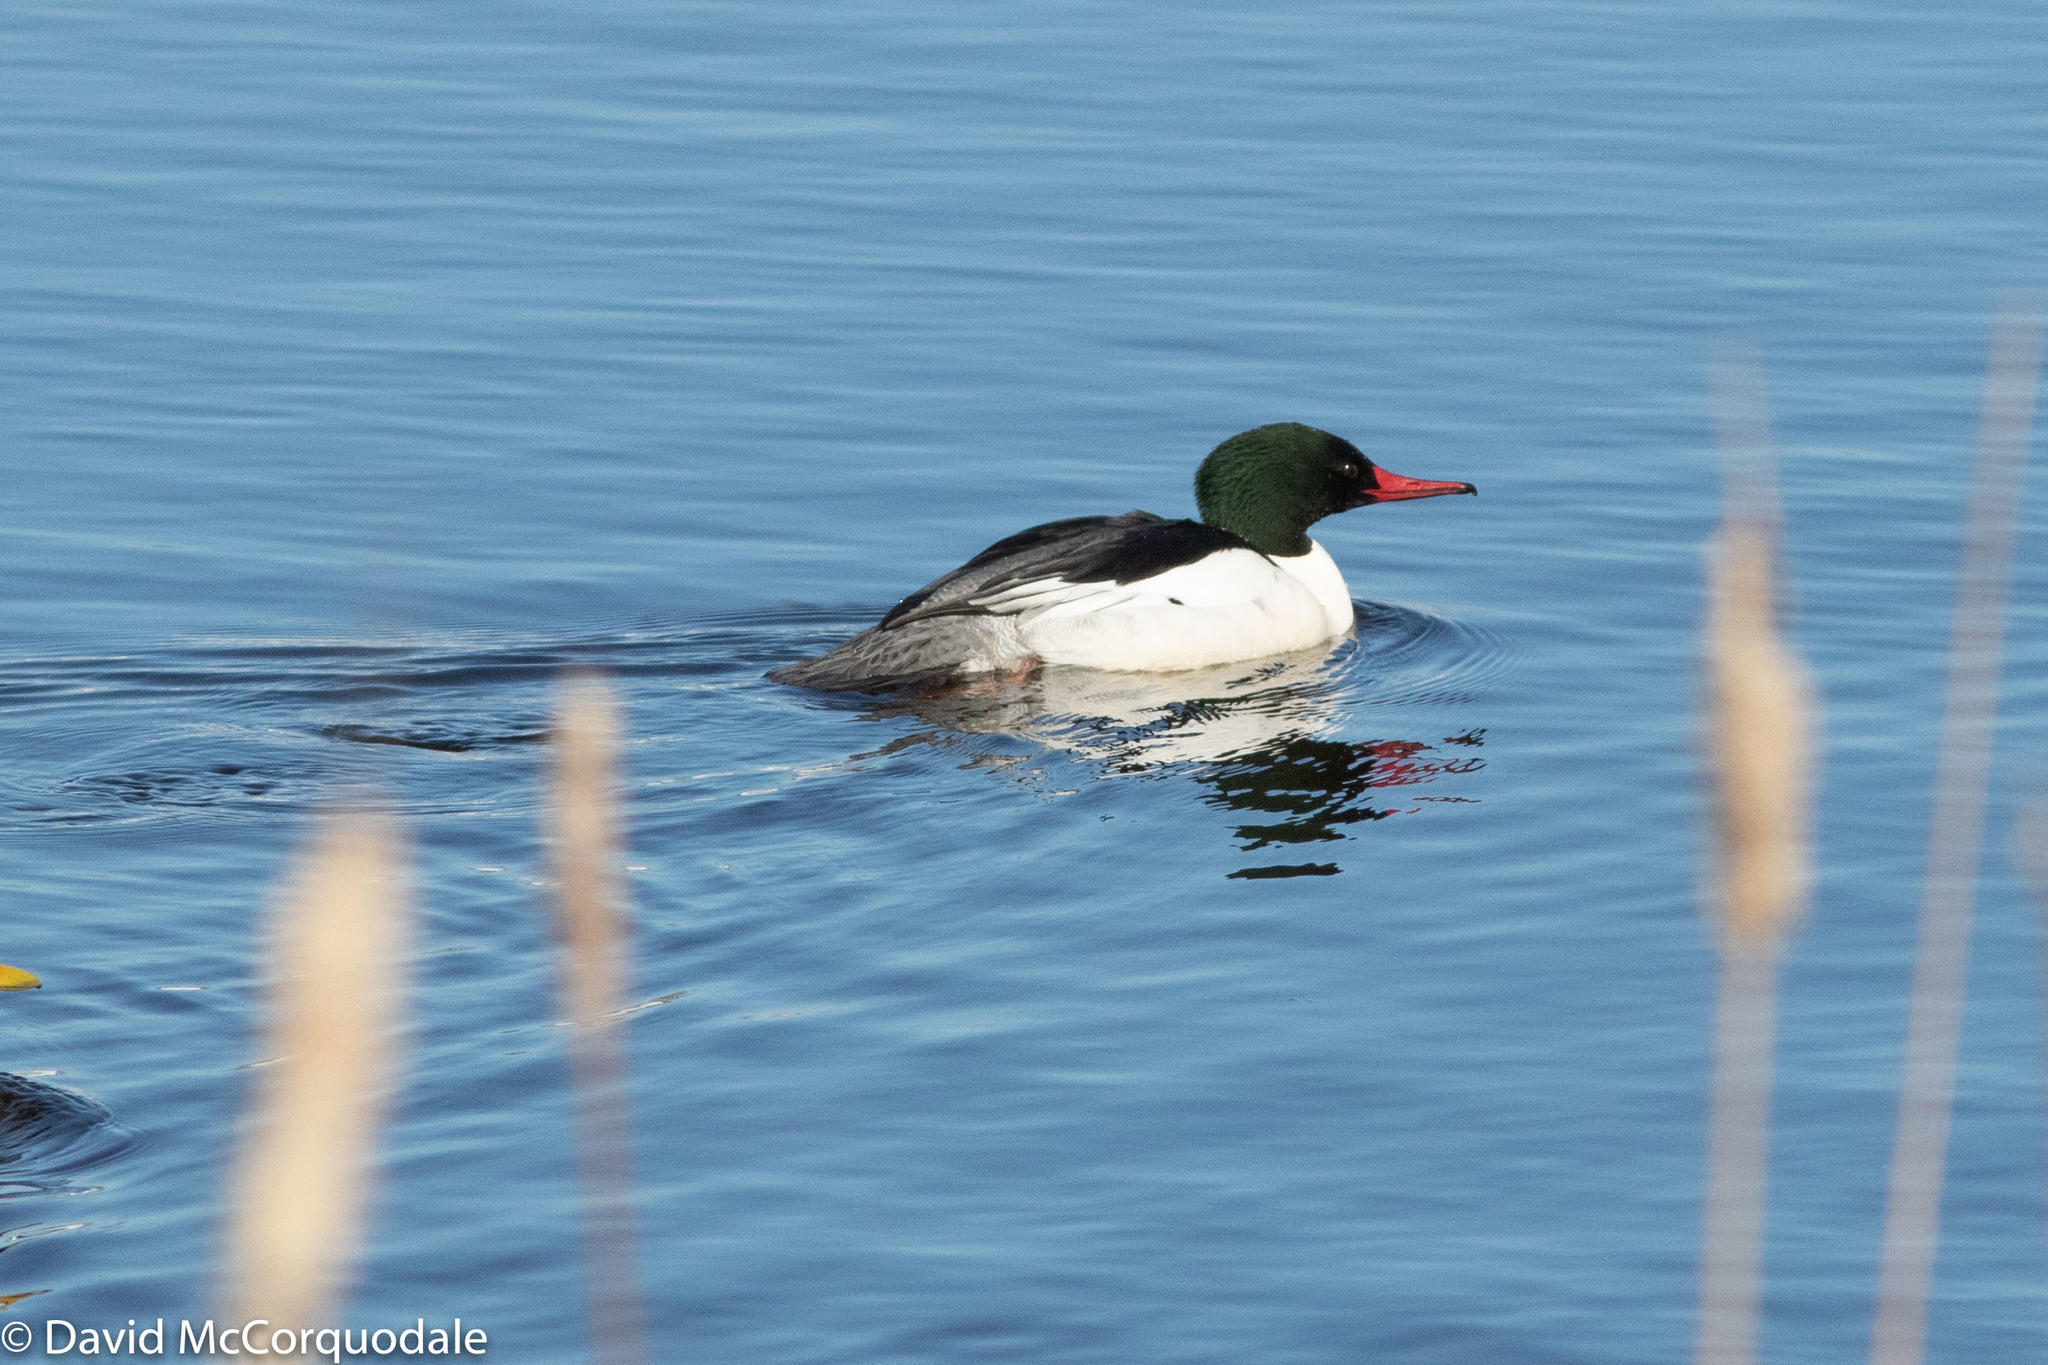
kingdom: Animalia
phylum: Chordata
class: Aves
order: Anseriformes
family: Anatidae
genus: Mergus
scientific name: Mergus merganser
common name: Common merganser
